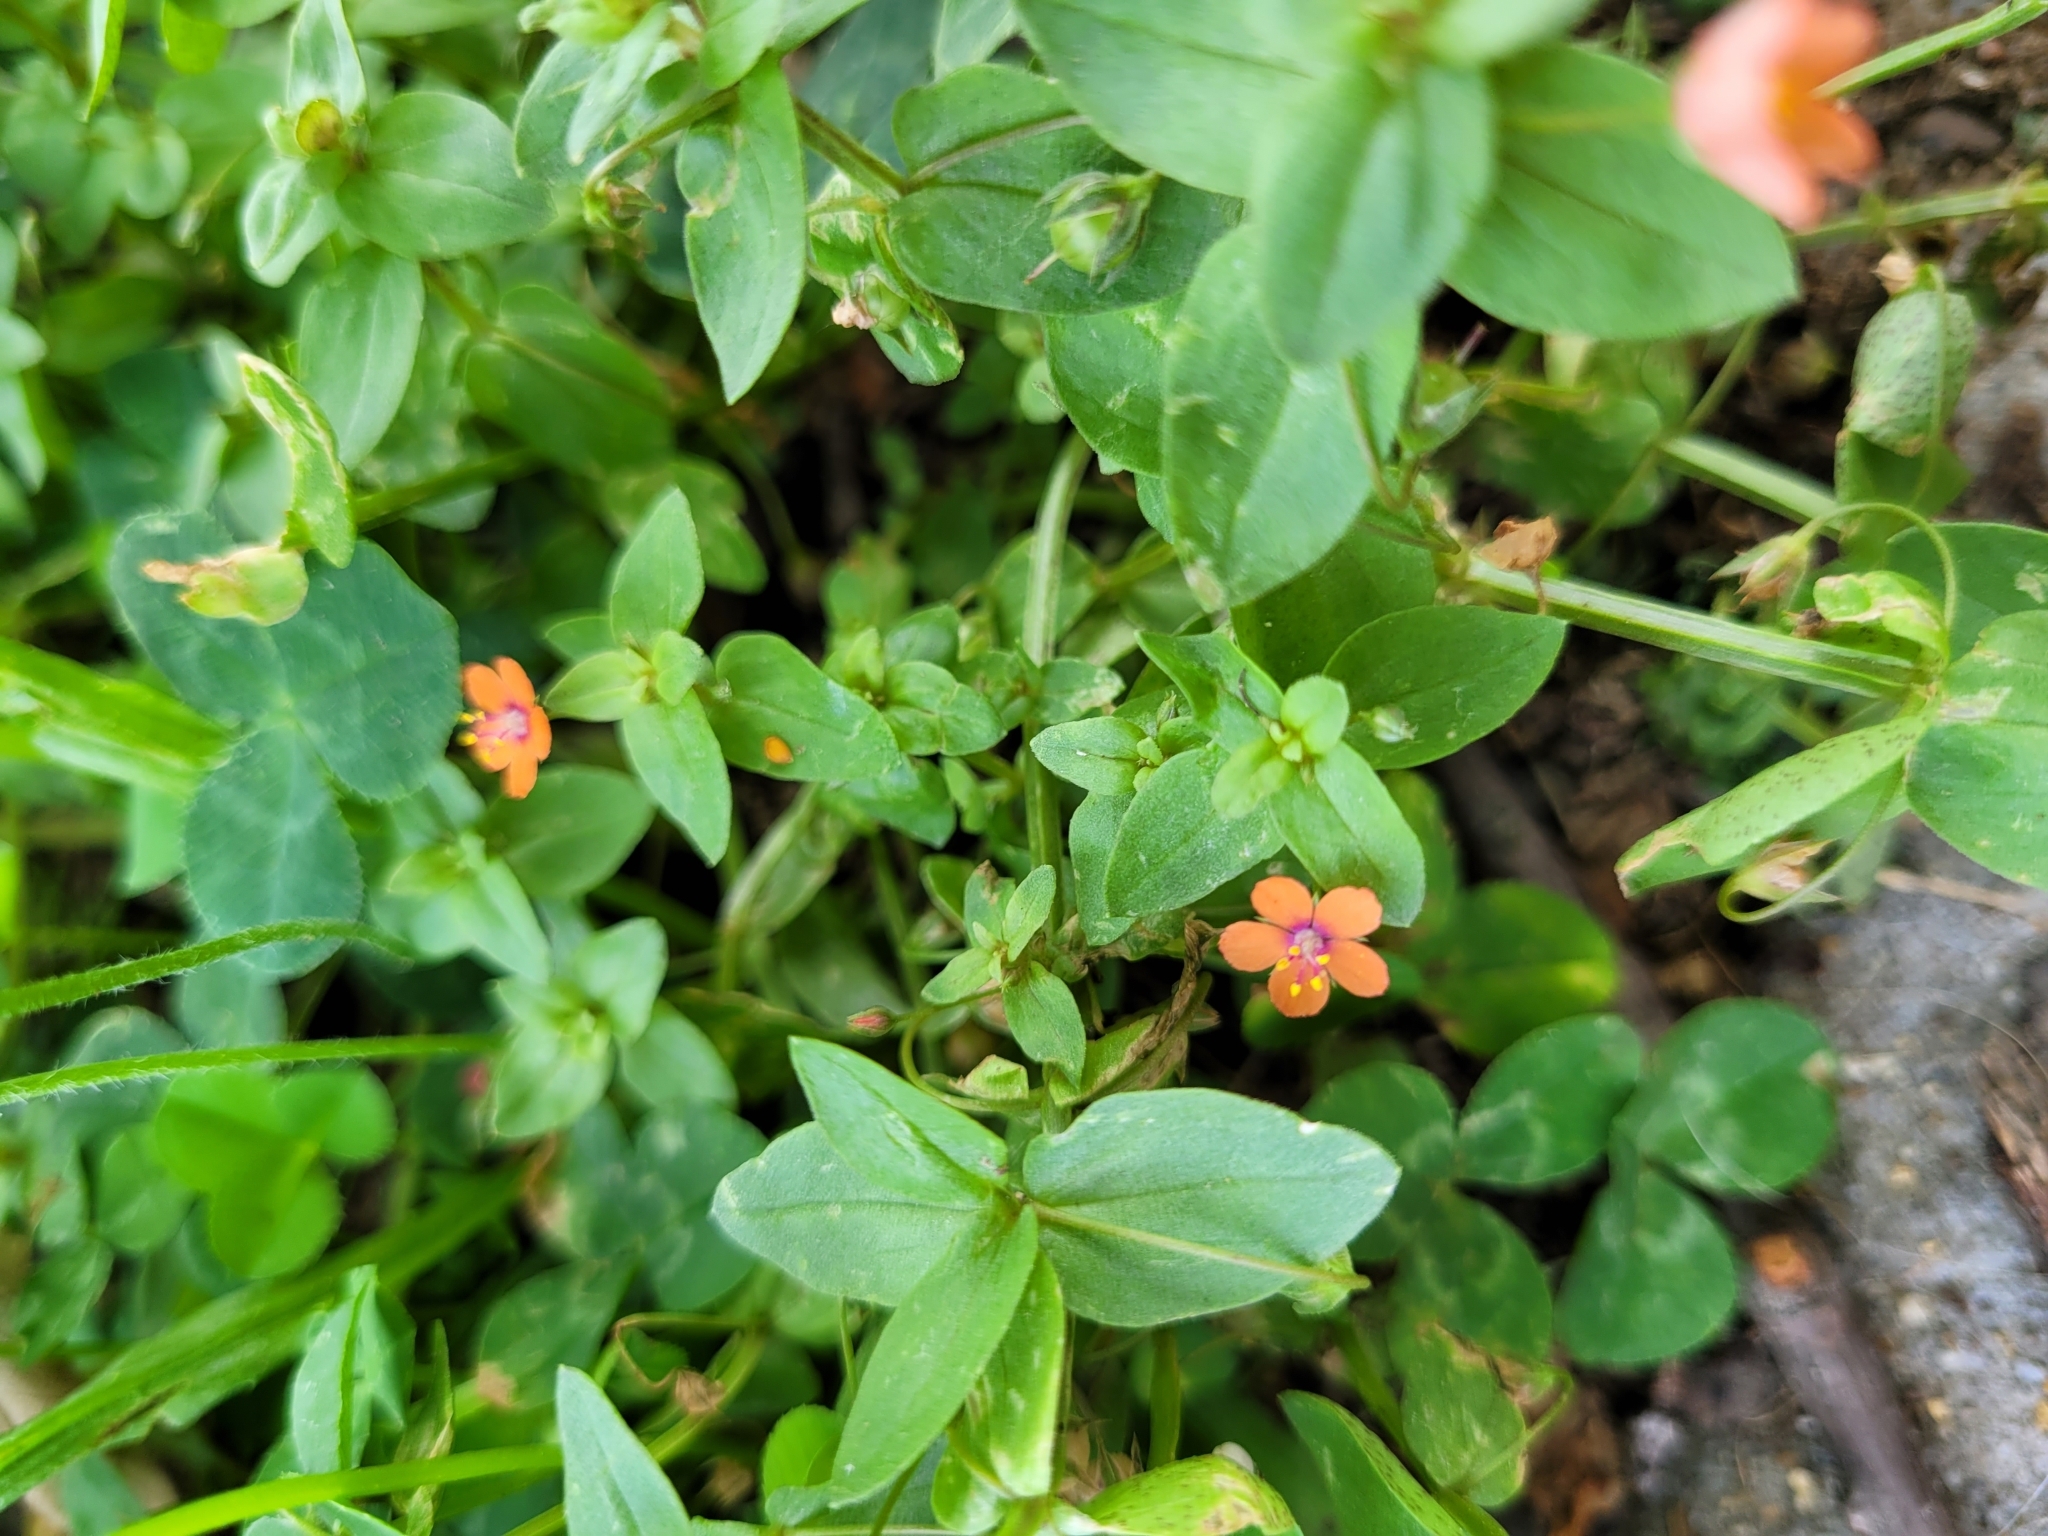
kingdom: Plantae
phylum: Tracheophyta
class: Magnoliopsida
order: Ericales
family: Primulaceae
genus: Lysimachia
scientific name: Lysimachia arvensis
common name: Scarlet pimpernel
